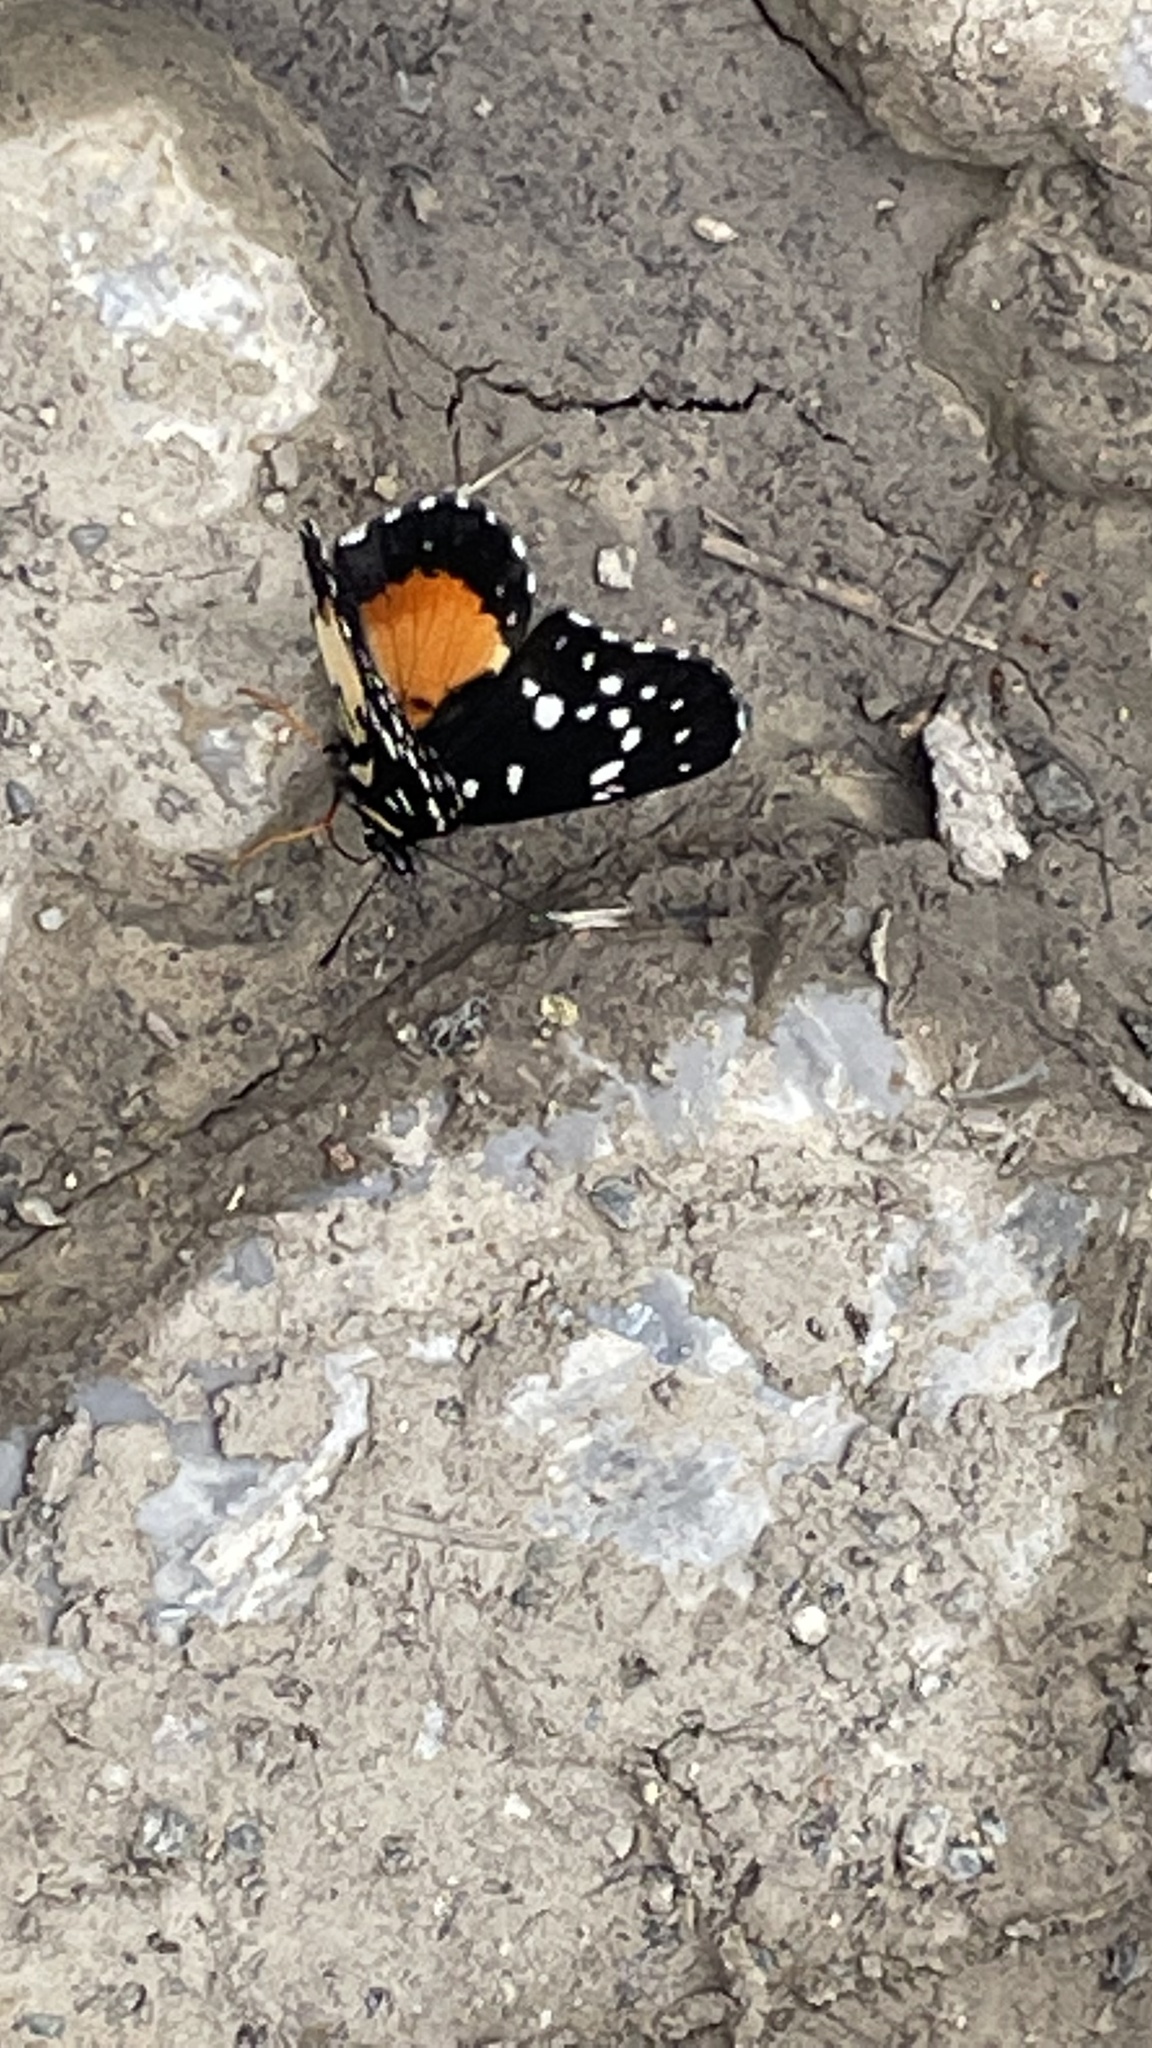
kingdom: Animalia
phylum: Arthropoda
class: Insecta
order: Lepidoptera
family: Nymphalidae
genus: Chlosyne
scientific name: Chlosyne rosita
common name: Rosita patch
